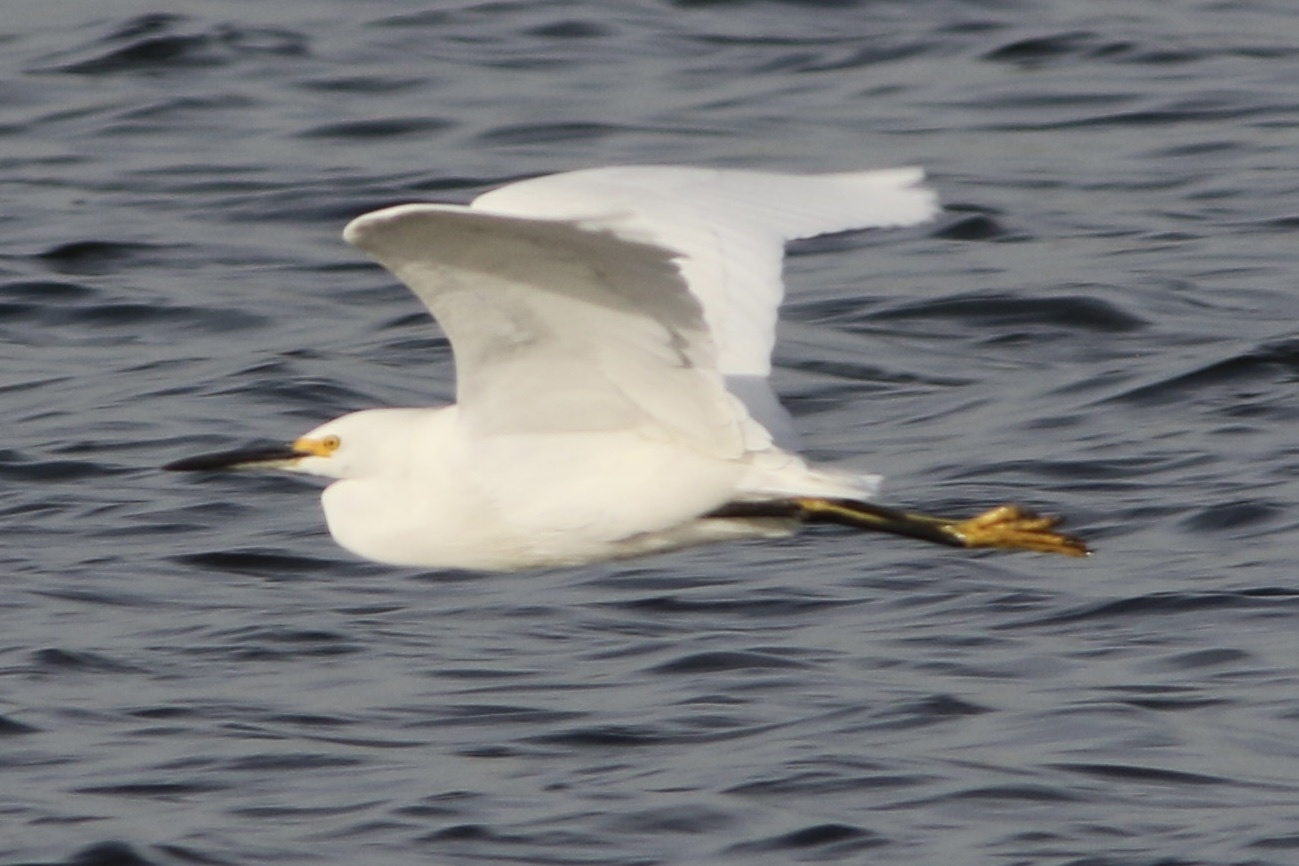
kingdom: Animalia
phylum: Chordata
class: Aves
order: Pelecaniformes
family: Ardeidae
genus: Egretta
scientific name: Egretta thula
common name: Snowy egret
